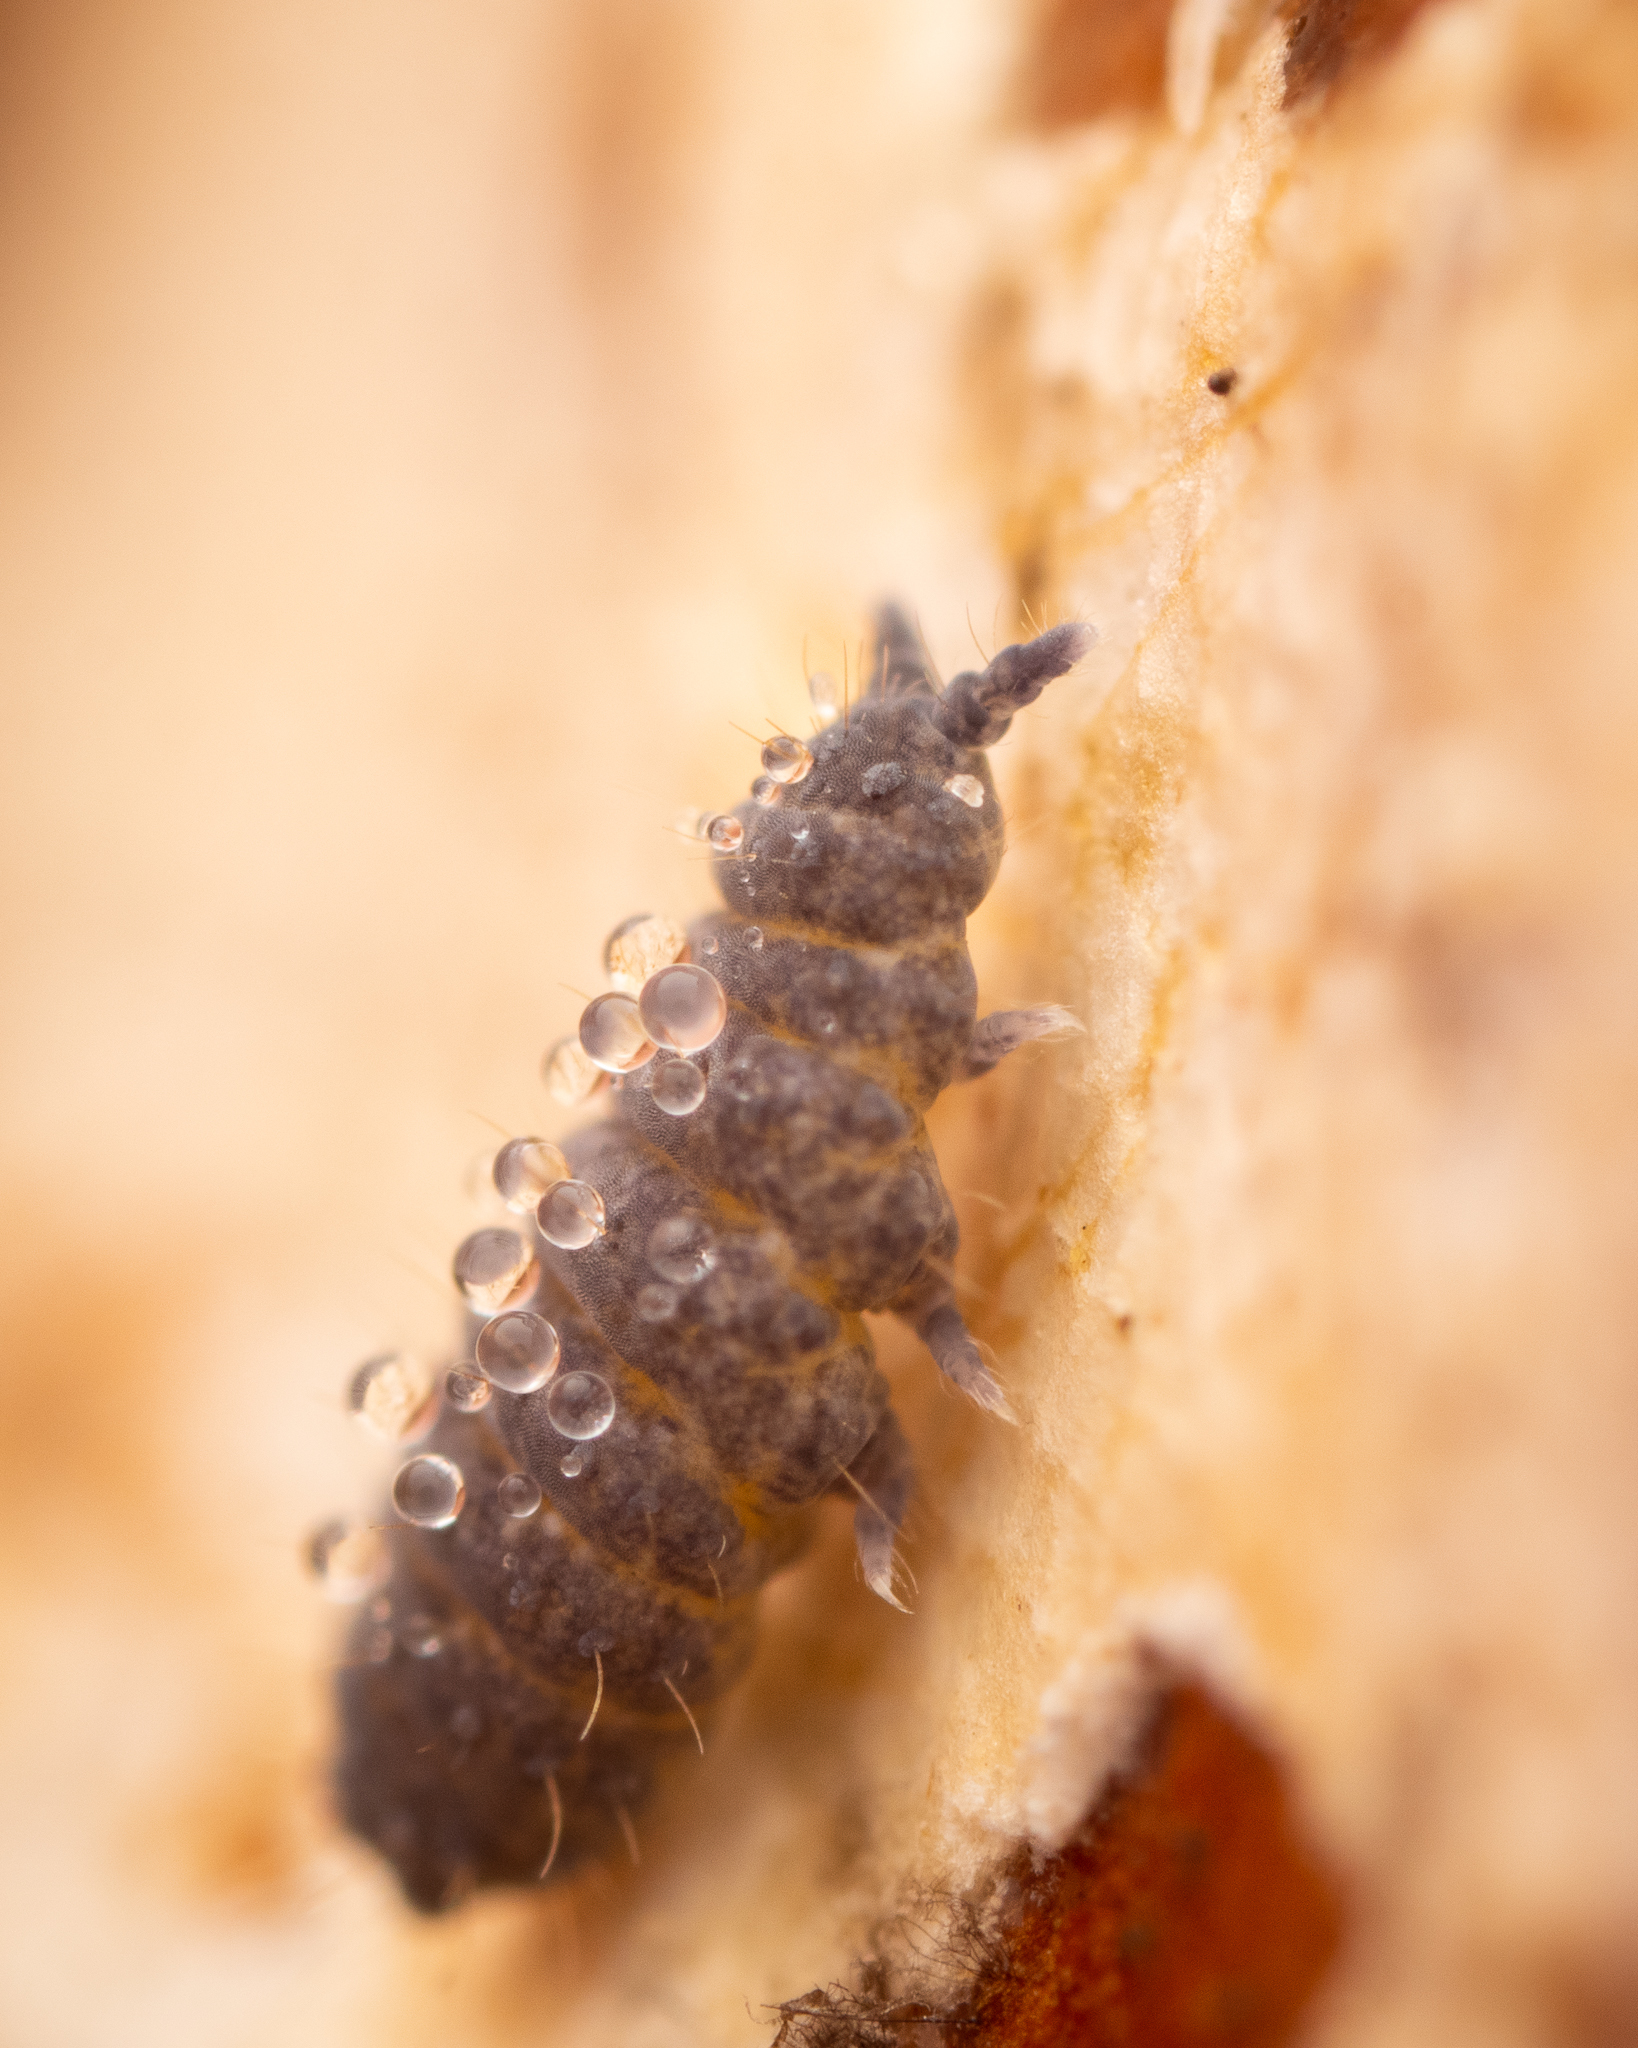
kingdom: Animalia
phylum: Arthropoda
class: Collembola
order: Poduromorpha
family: Neanuridae
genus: Neanura
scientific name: Neanura muscorum
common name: Springtail
